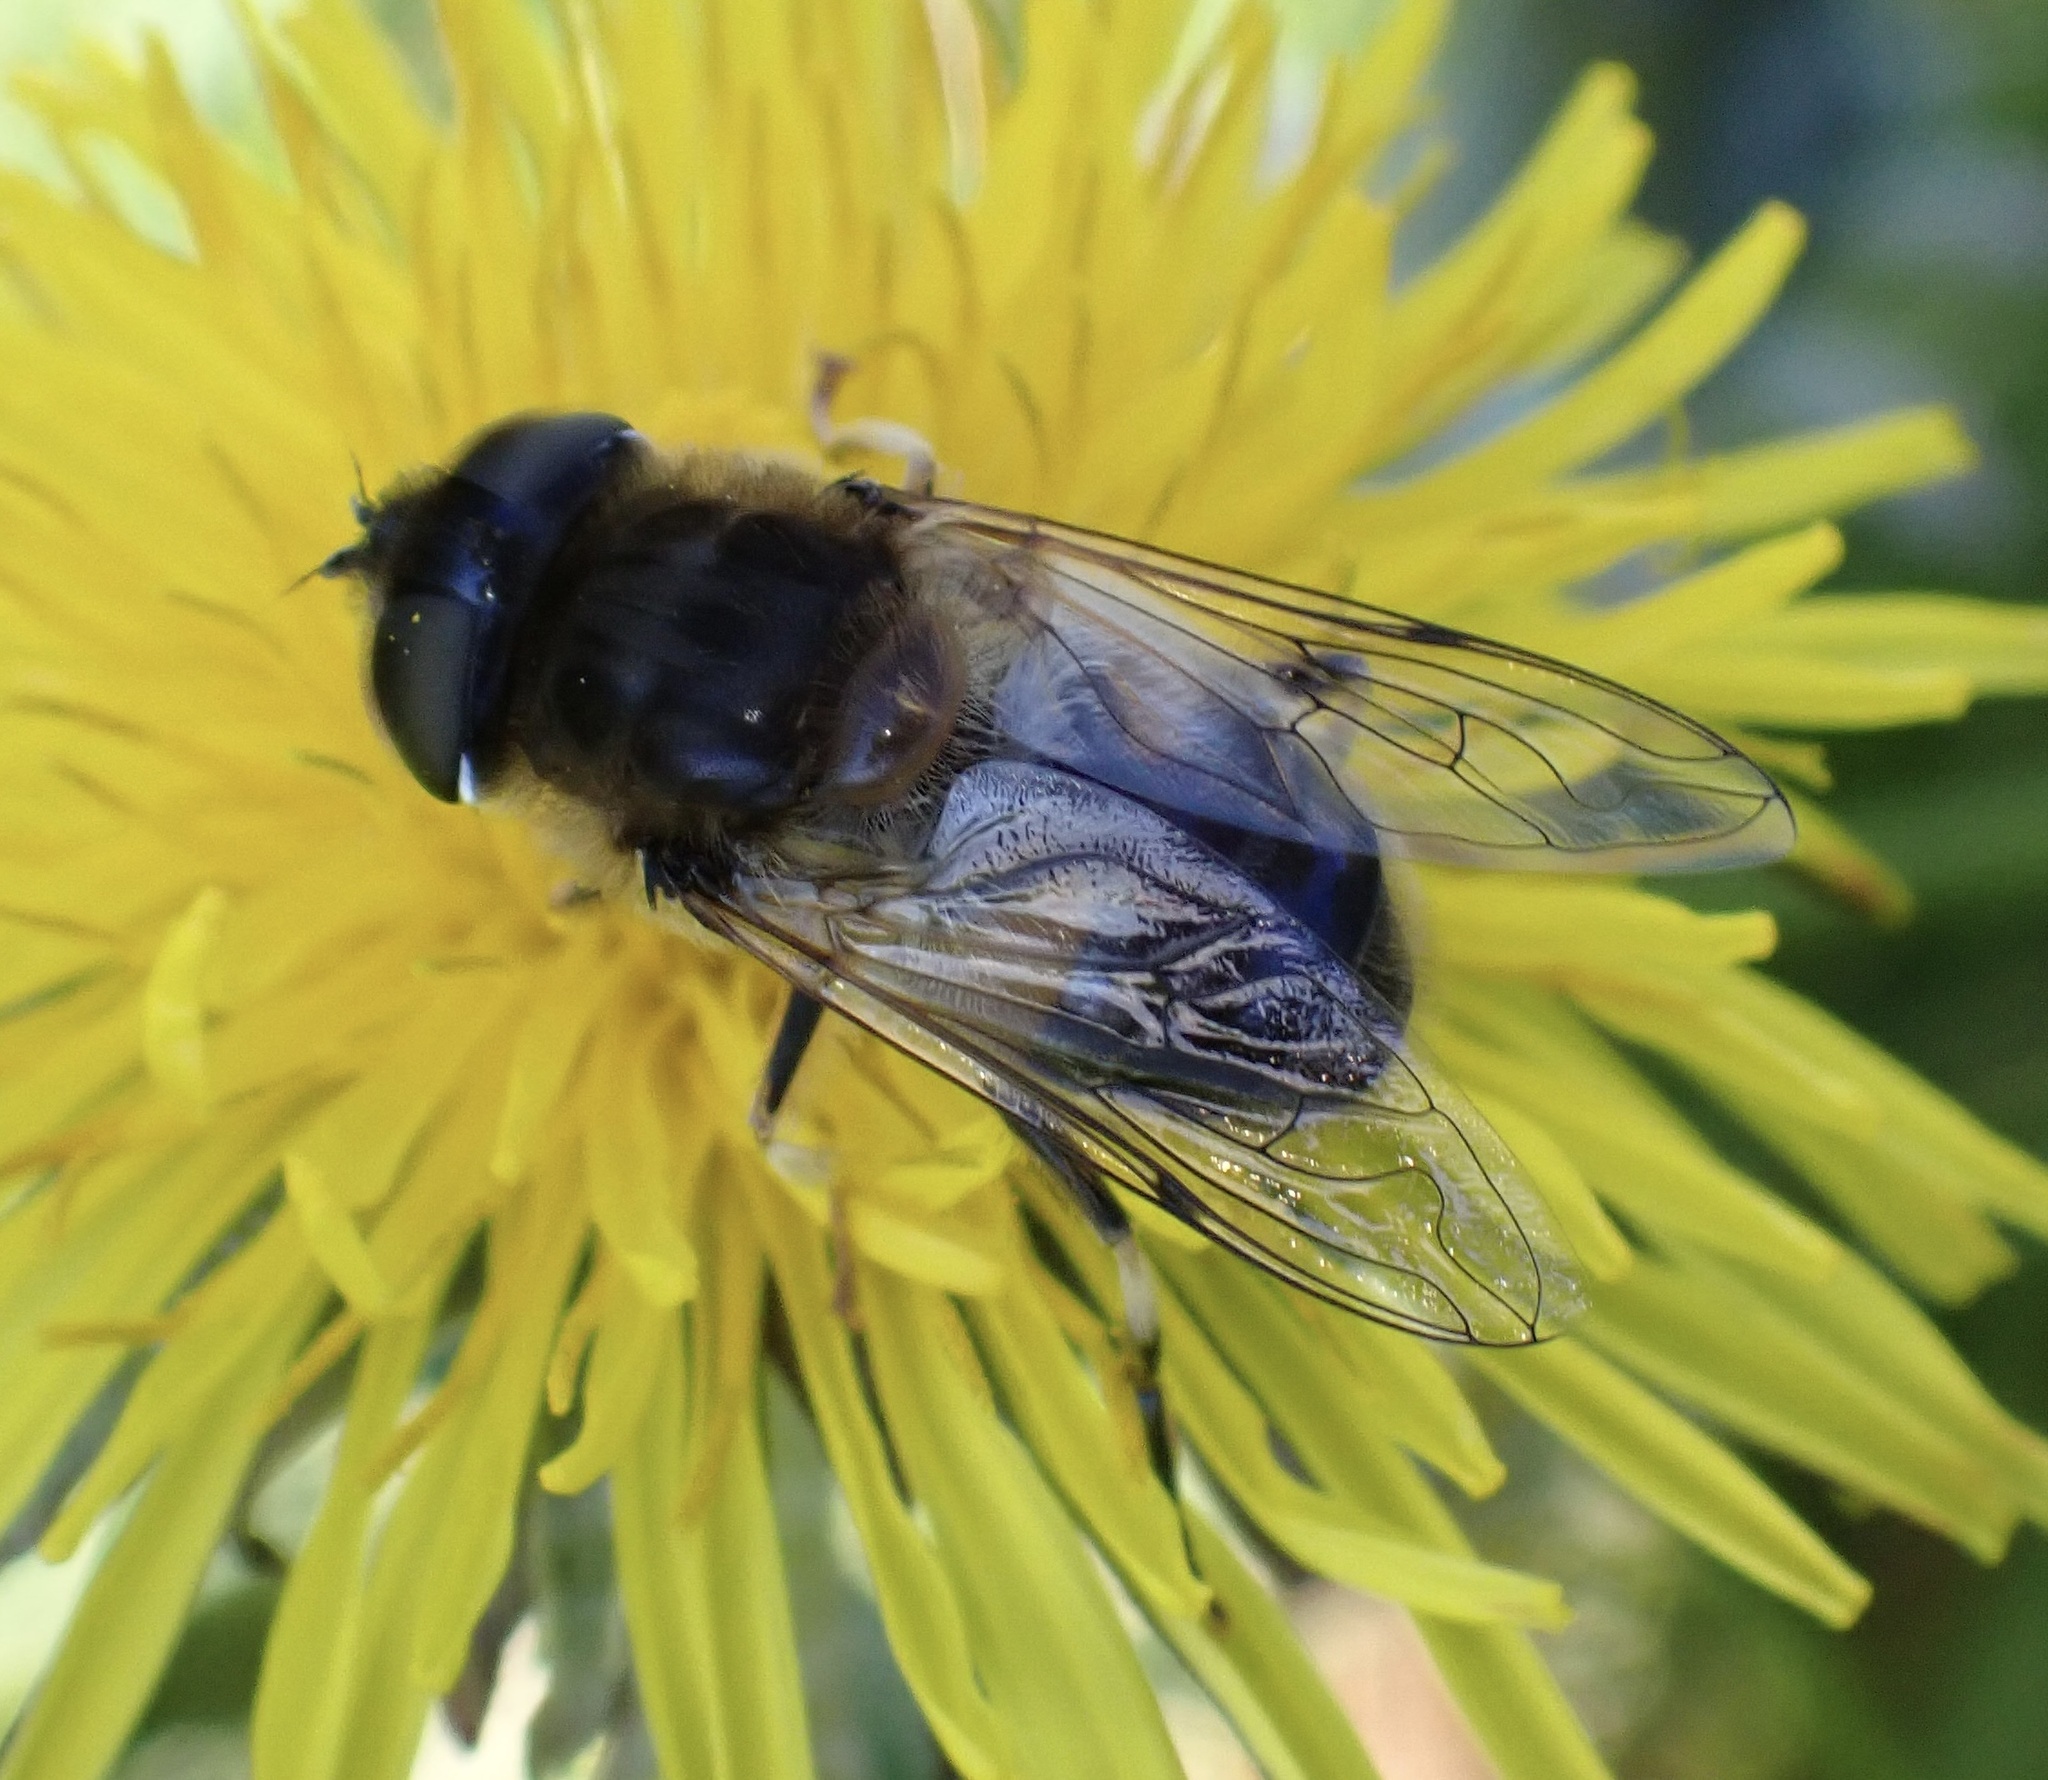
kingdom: Animalia
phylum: Arthropoda
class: Insecta
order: Diptera
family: Syrphidae
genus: Eristalis
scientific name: Eristalis pertinax
